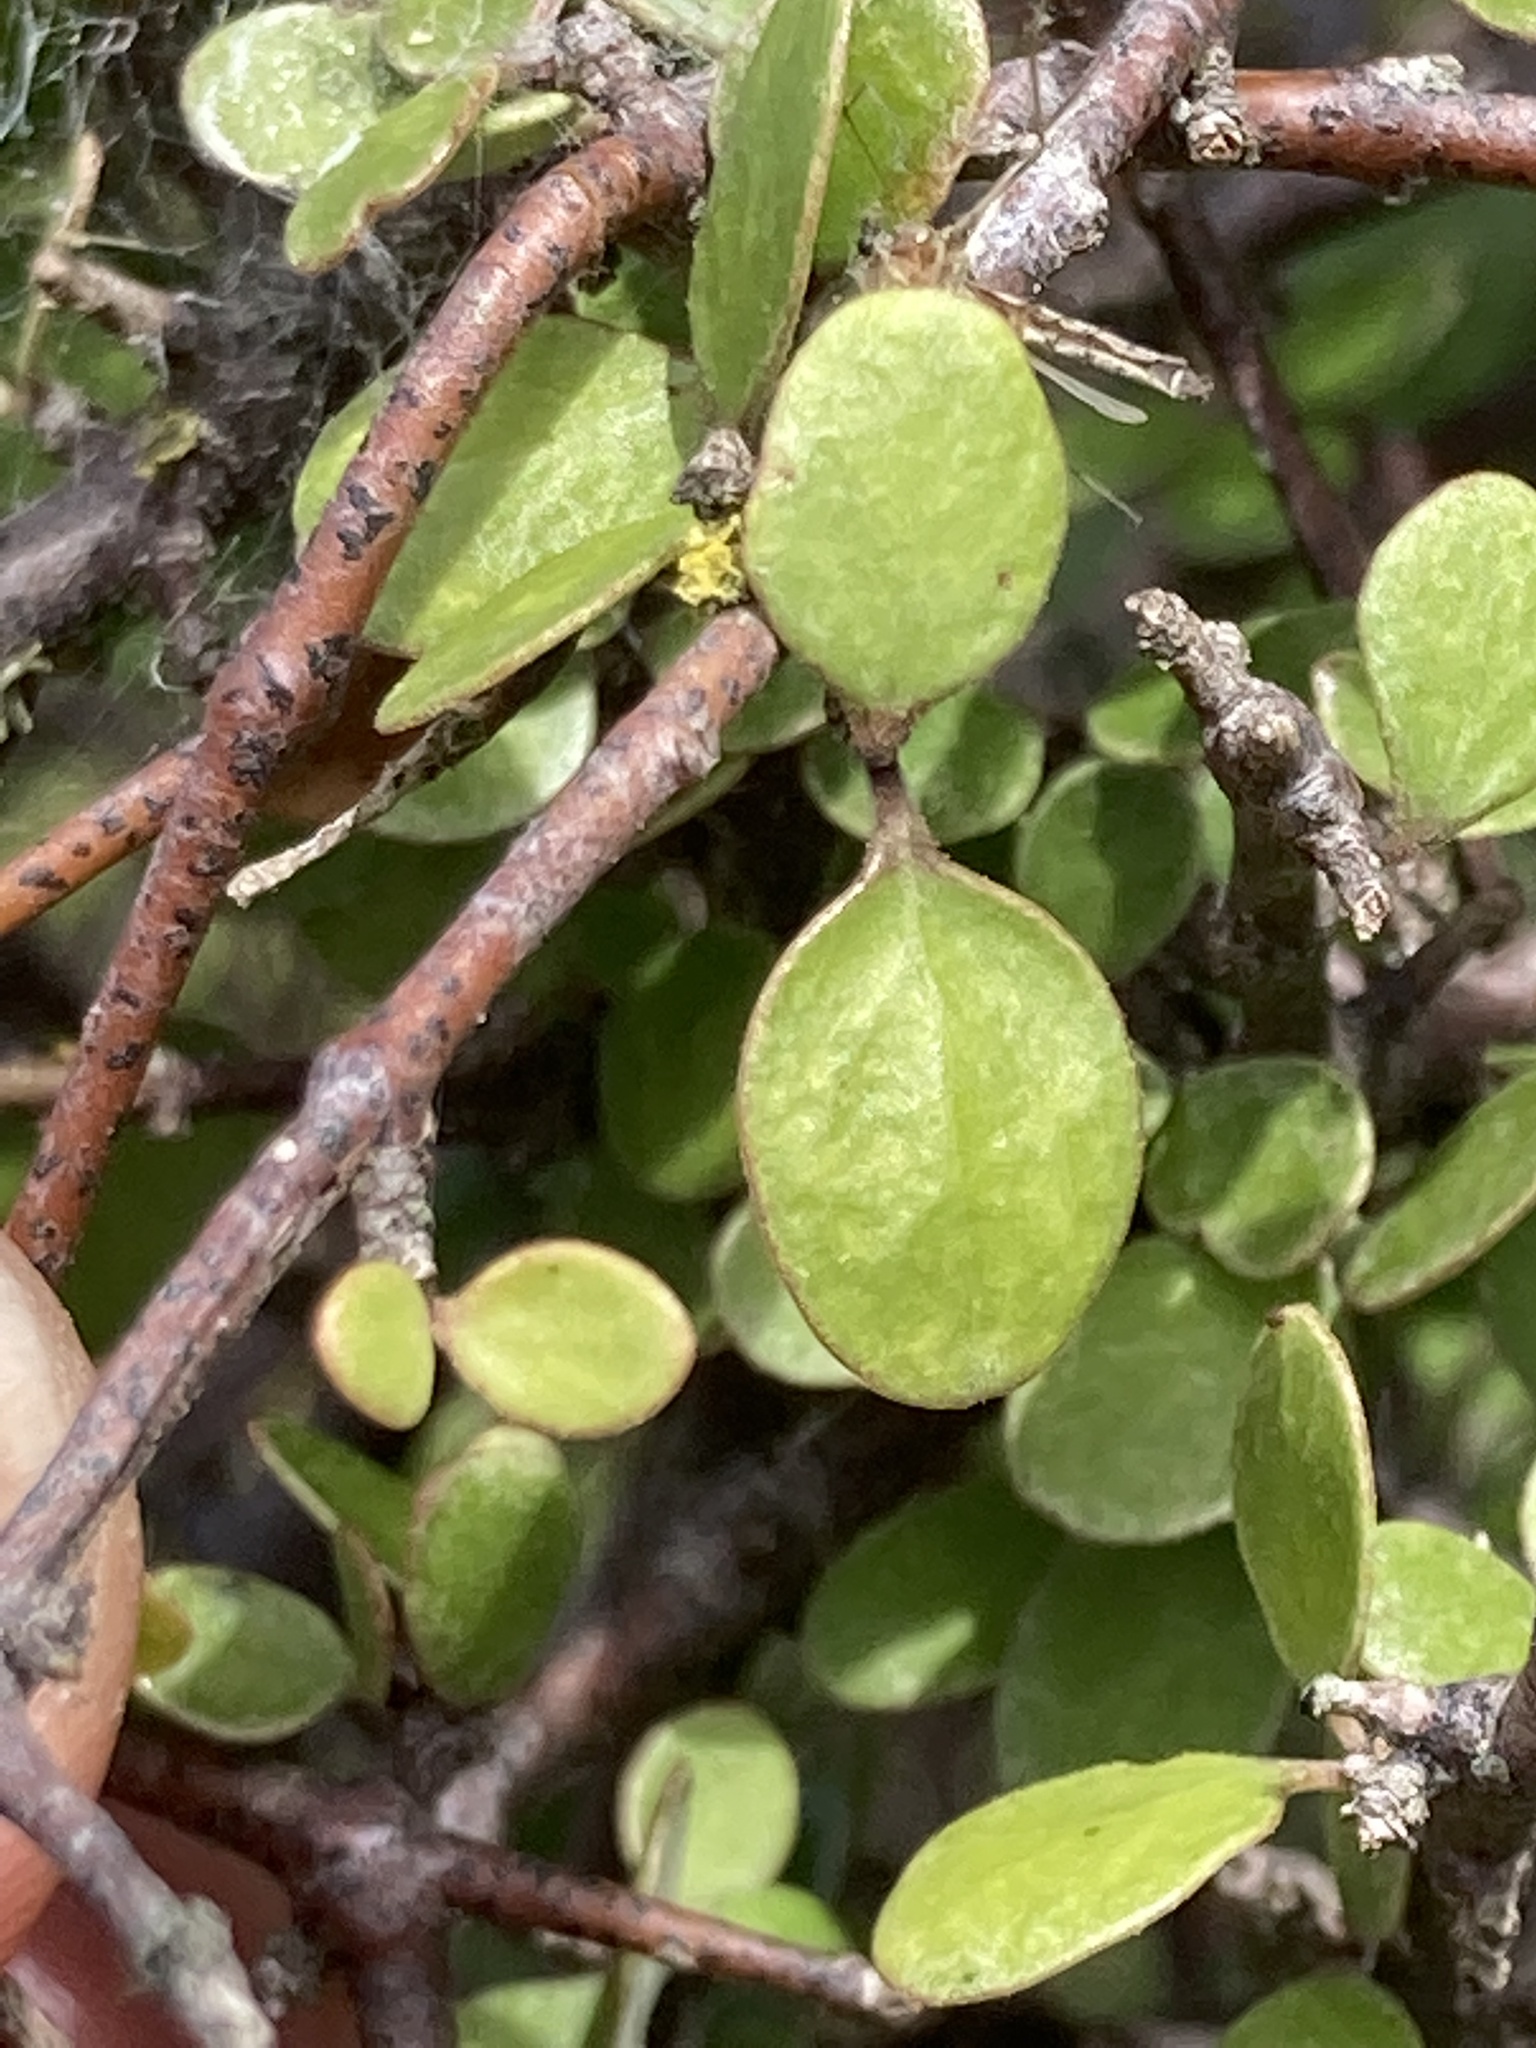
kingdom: Plantae
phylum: Tracheophyta
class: Magnoliopsida
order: Gentianales
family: Rubiaceae
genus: Coprosma
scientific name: Coprosma crassifolia
